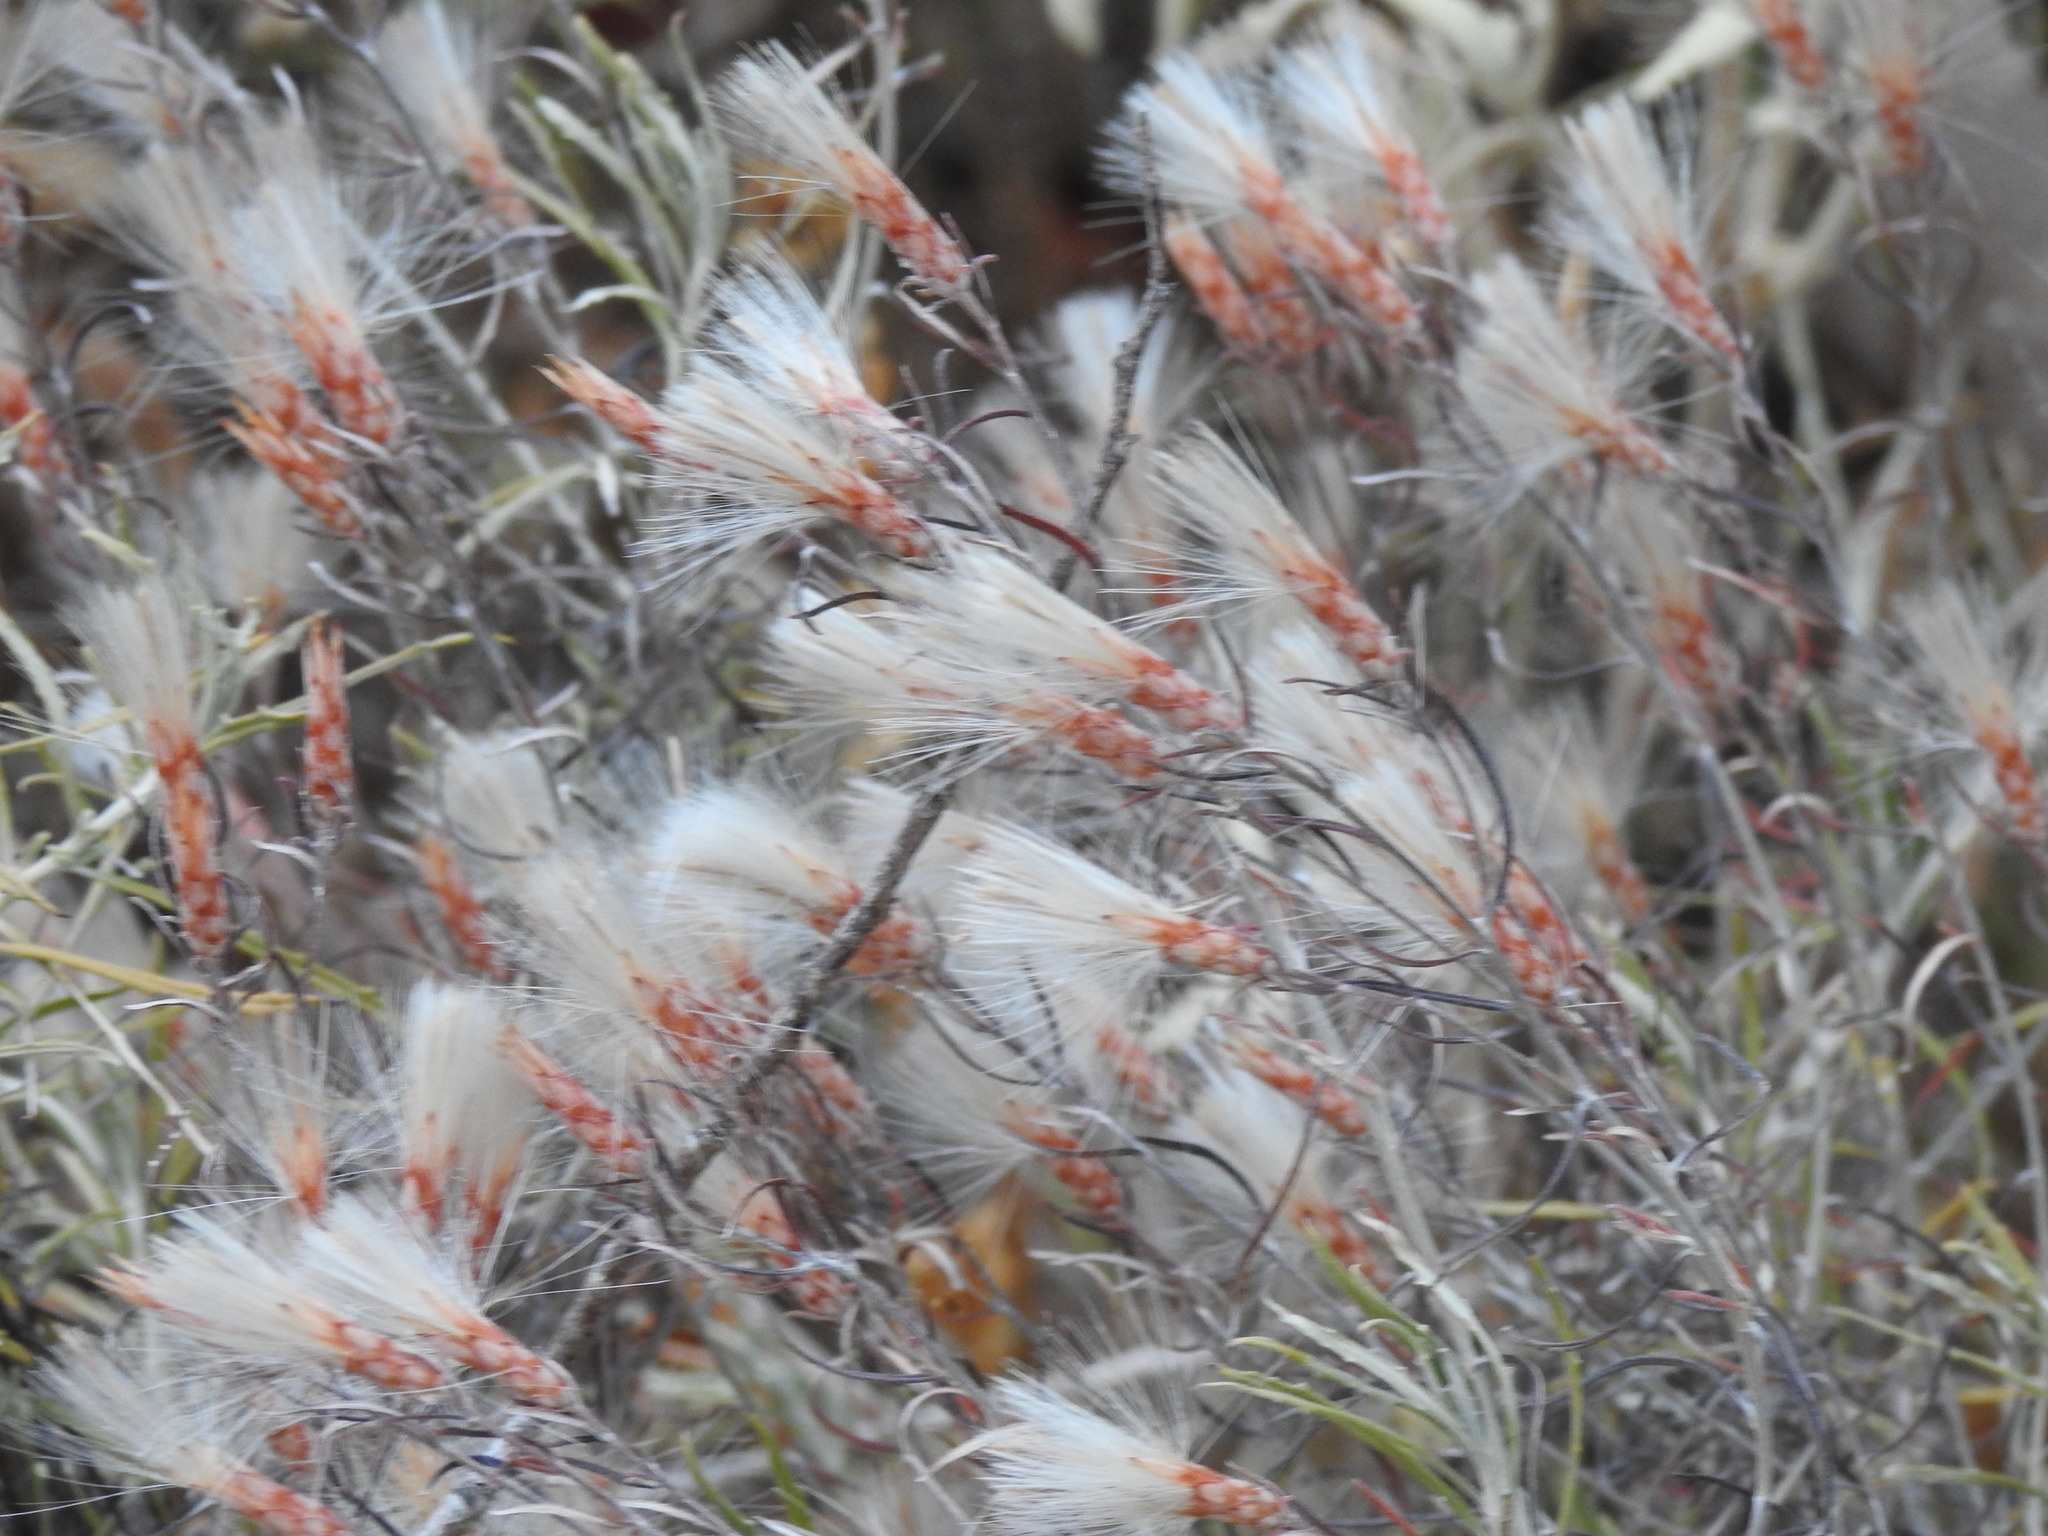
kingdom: Plantae
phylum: Tracheophyta
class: Magnoliopsida
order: Asterales
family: Asteraceae
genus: Staehelina
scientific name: Staehelina dubia
